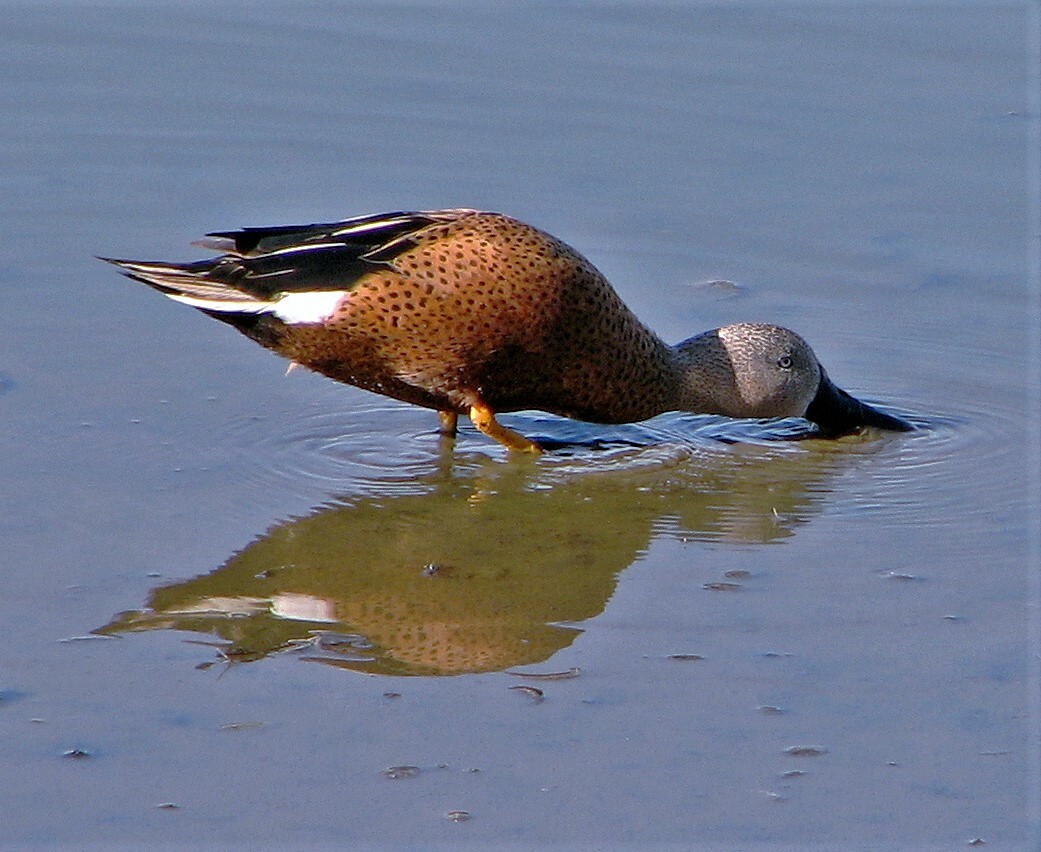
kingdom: Animalia
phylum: Chordata
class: Aves
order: Anseriformes
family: Anatidae
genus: Spatula
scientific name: Spatula platalea
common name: Red shoveler
